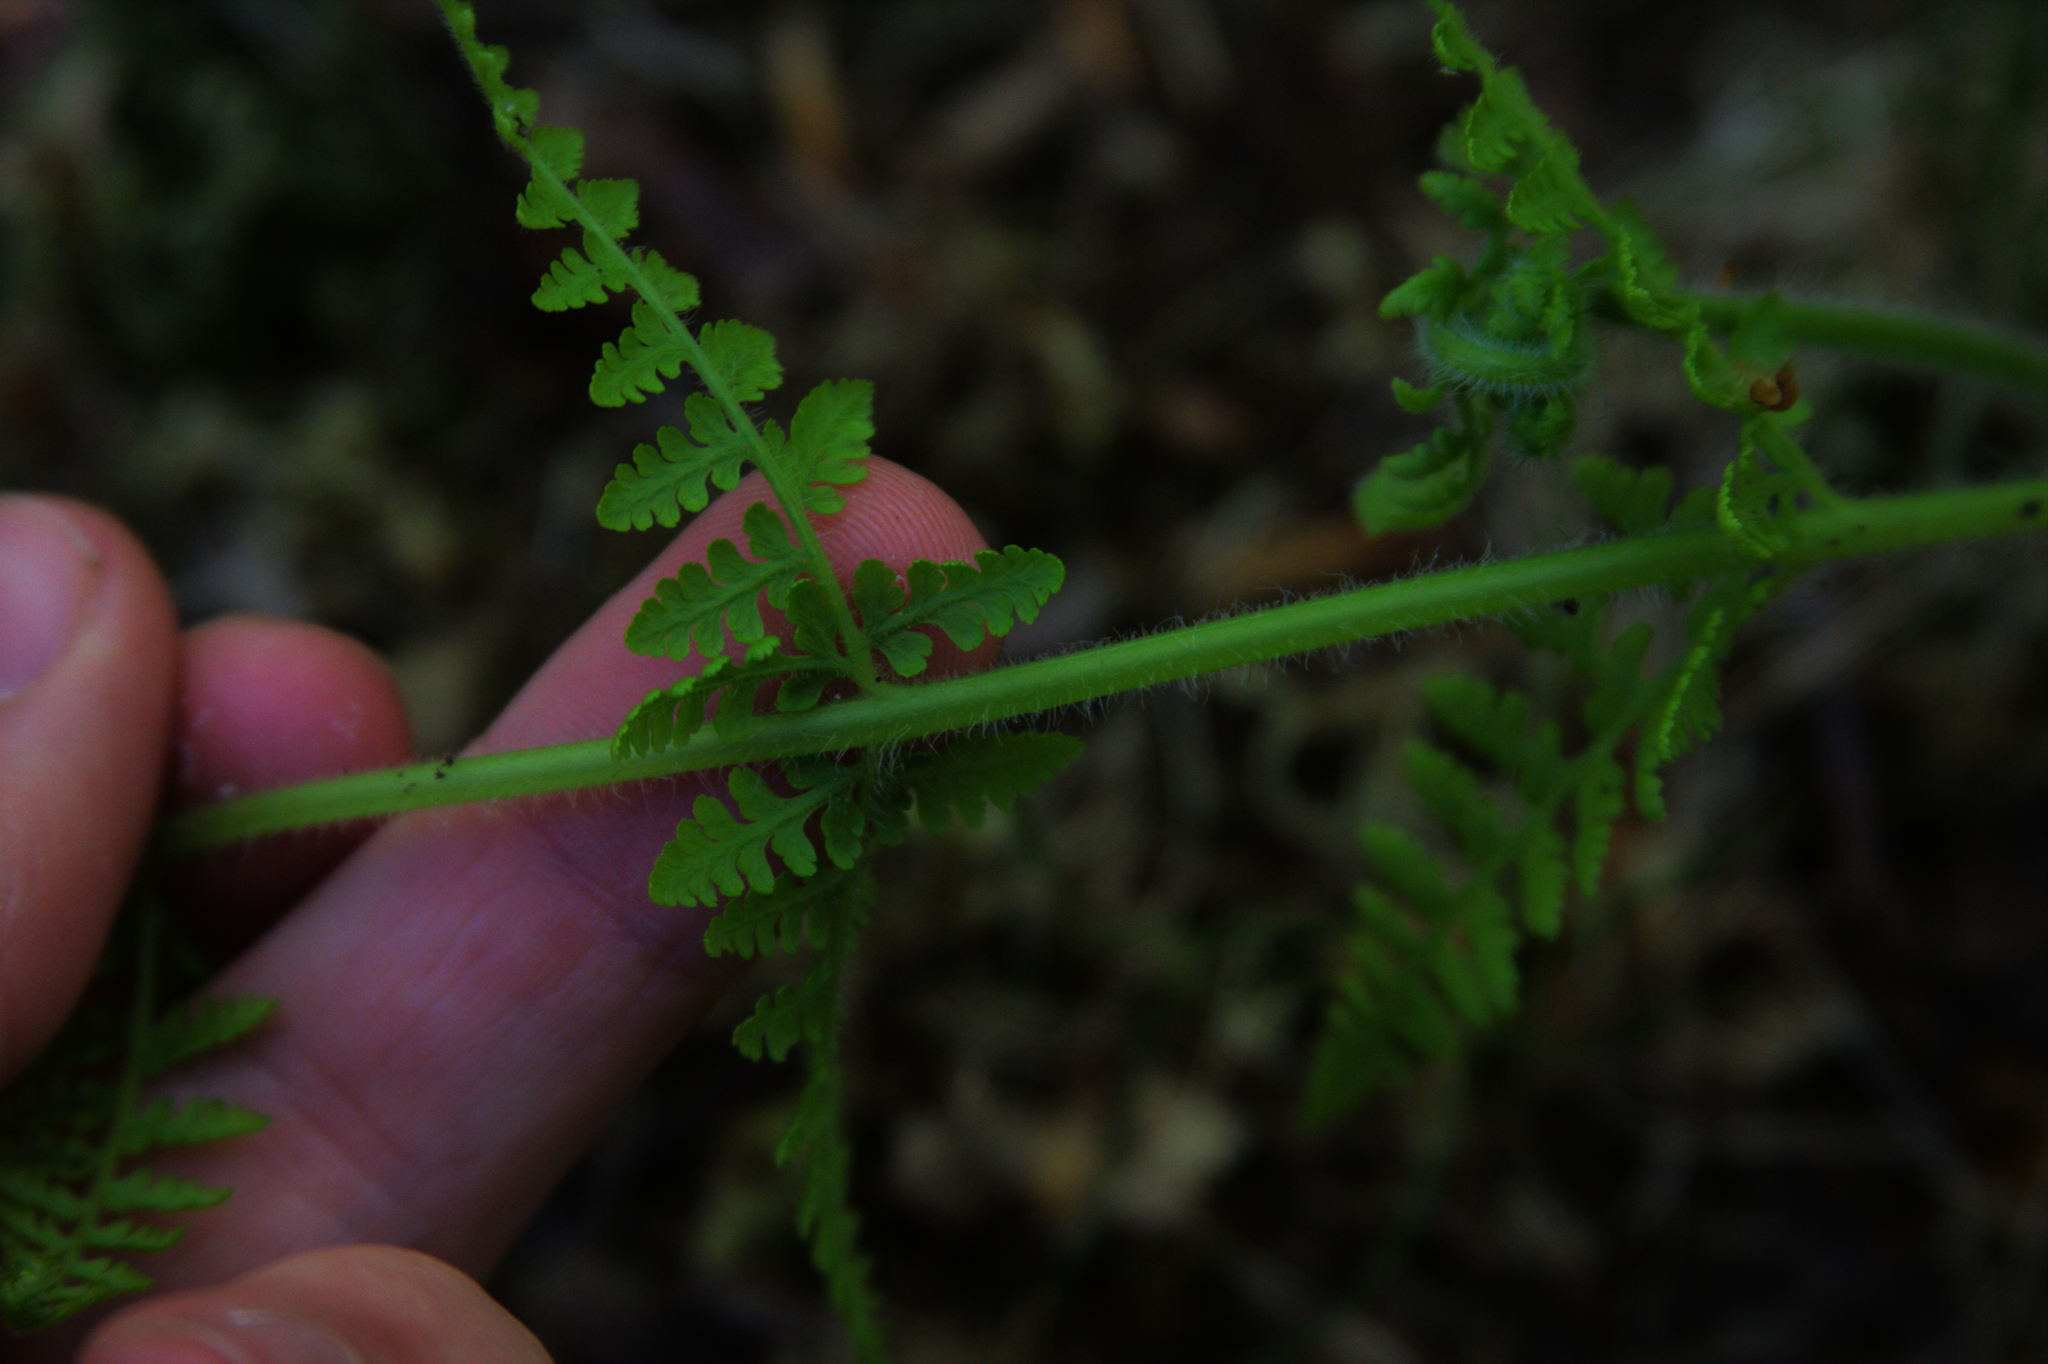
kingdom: Plantae
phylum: Tracheophyta
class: Polypodiopsida
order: Polypodiales
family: Dennstaedtiaceae
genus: Sitobolium
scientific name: Sitobolium punctilobum
